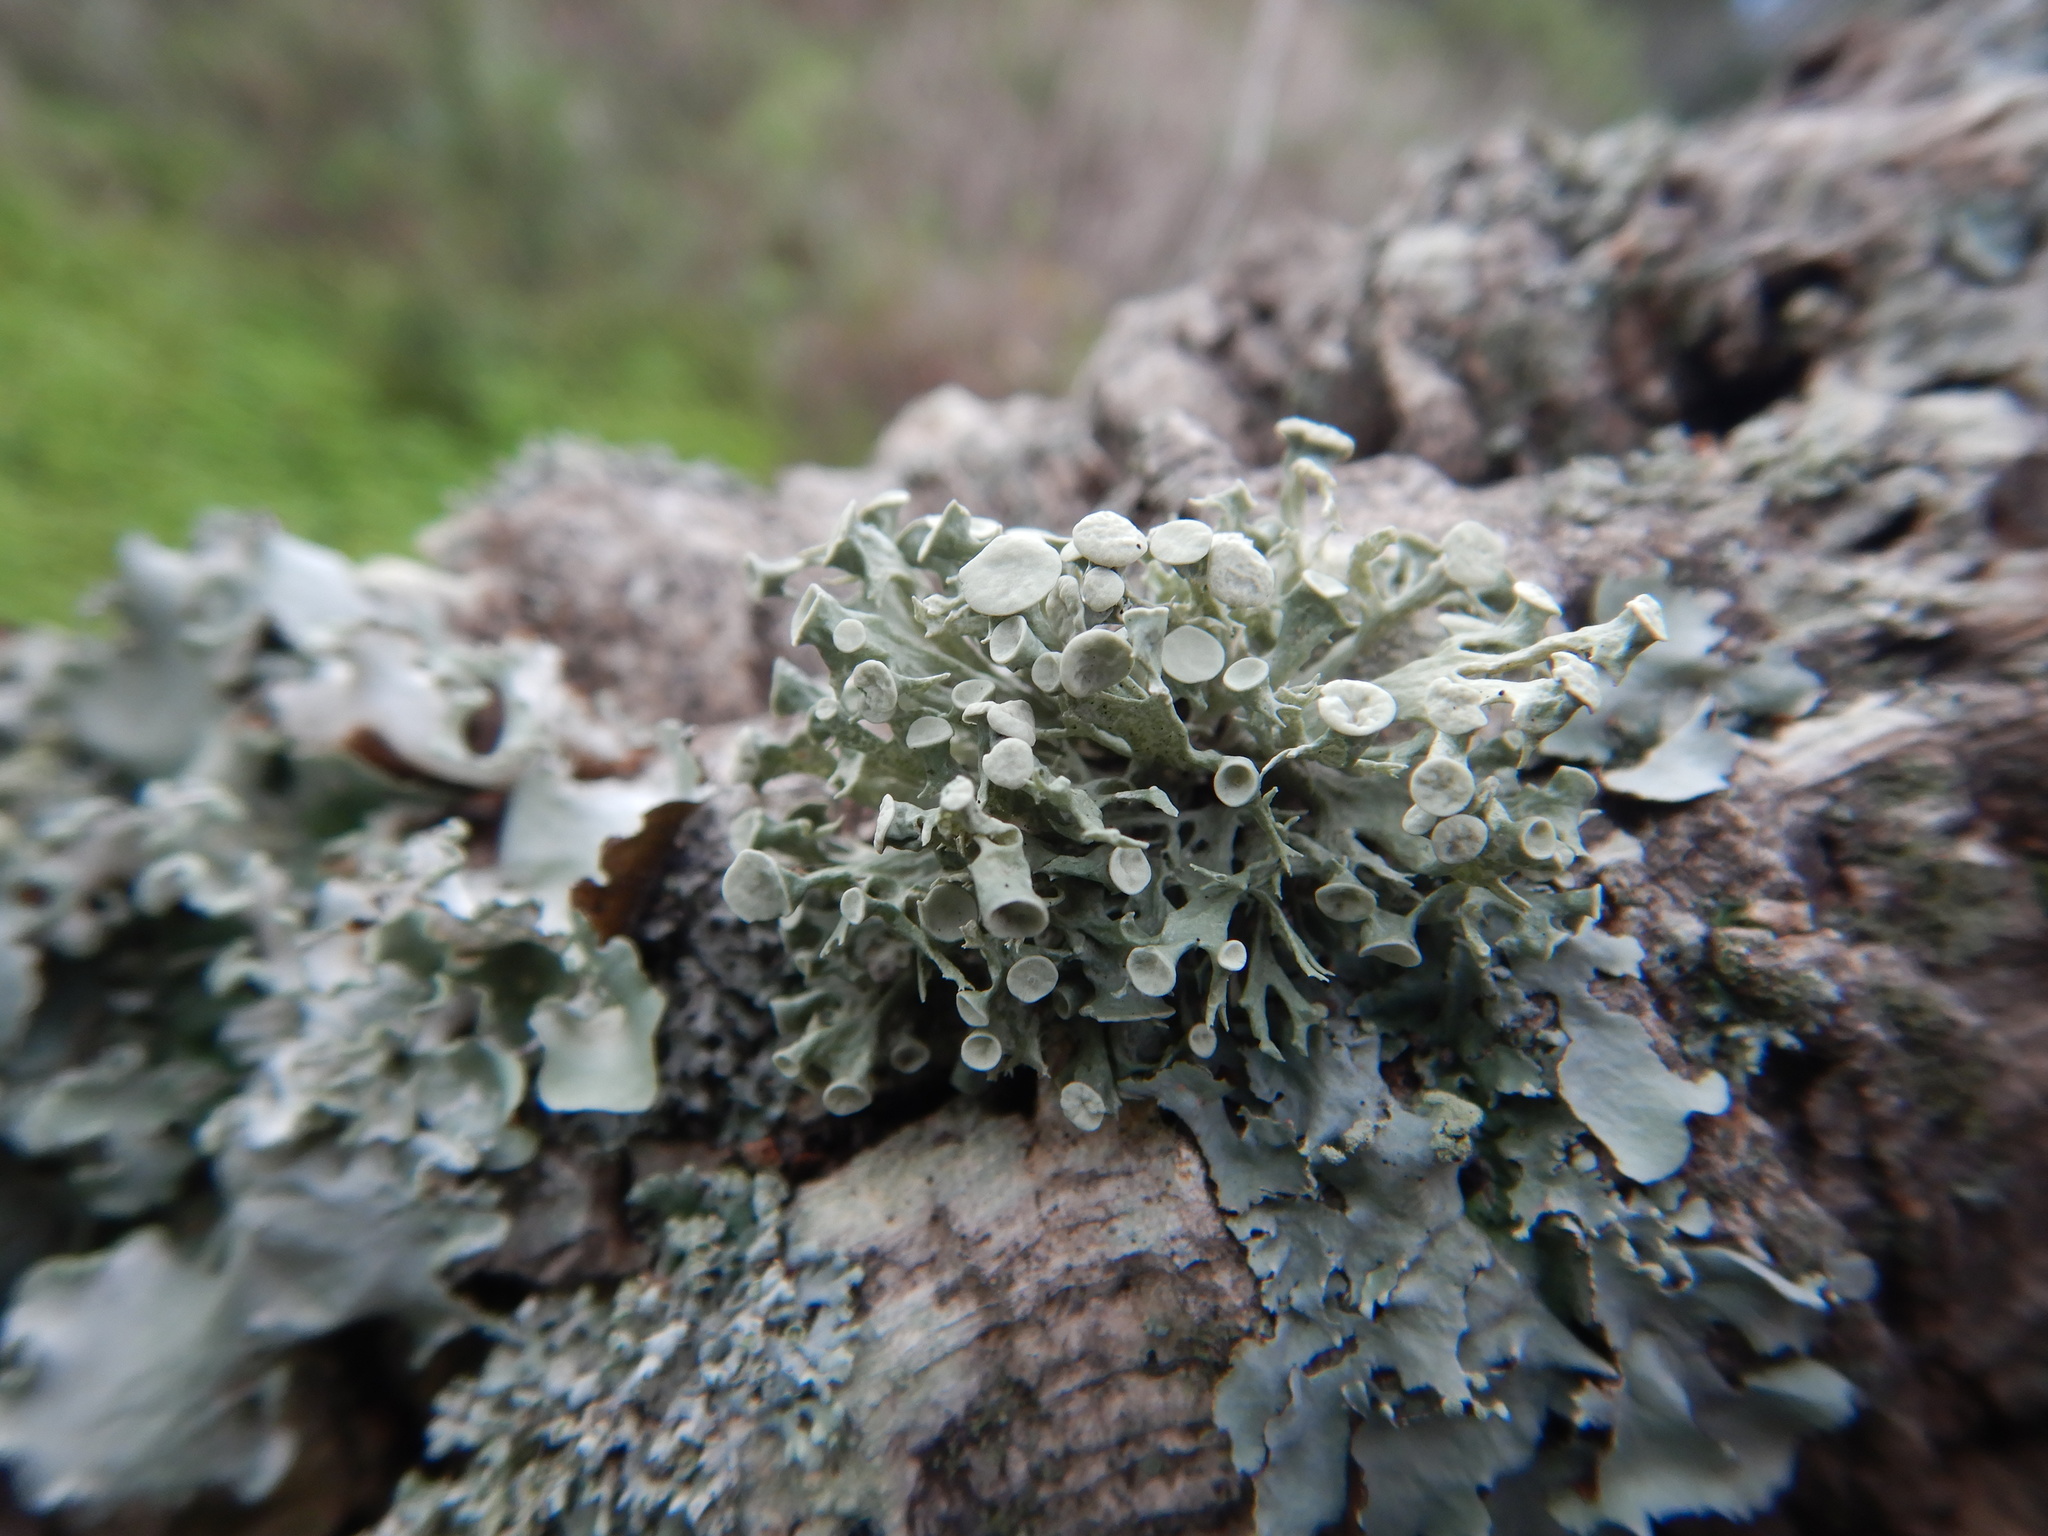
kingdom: Fungi
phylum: Ascomycota
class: Lecanoromycetes
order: Lecanorales
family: Ramalinaceae
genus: Ramalina
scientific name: Ramalina fastigiata
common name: Dotted ribbon lichen
